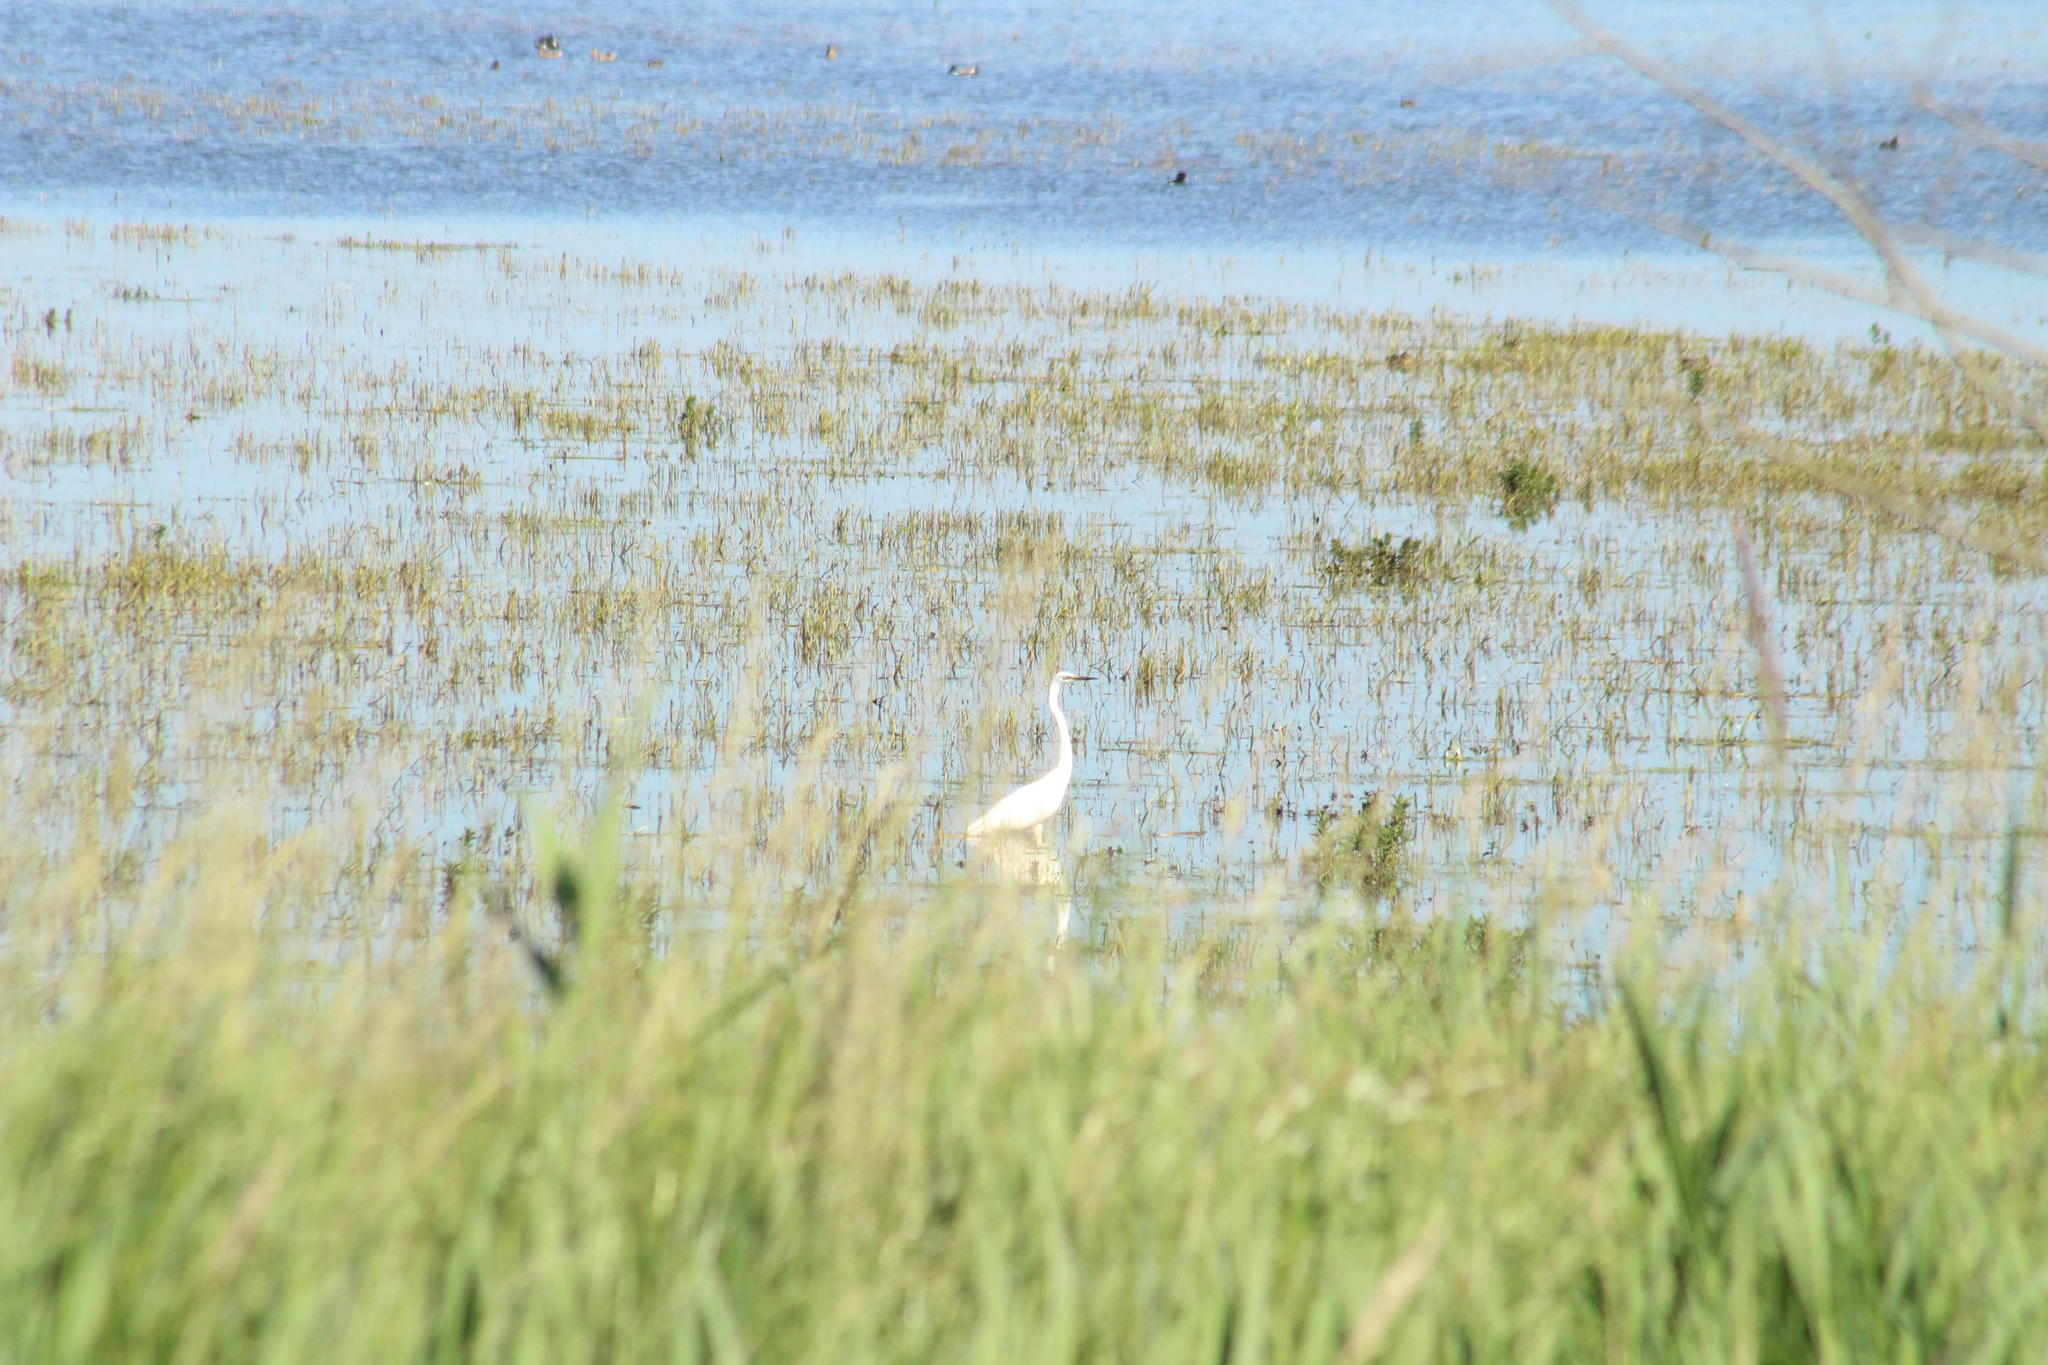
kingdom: Animalia
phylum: Chordata
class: Aves
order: Pelecaniformes
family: Ardeidae
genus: Ardea
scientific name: Ardea alba
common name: Great egret
